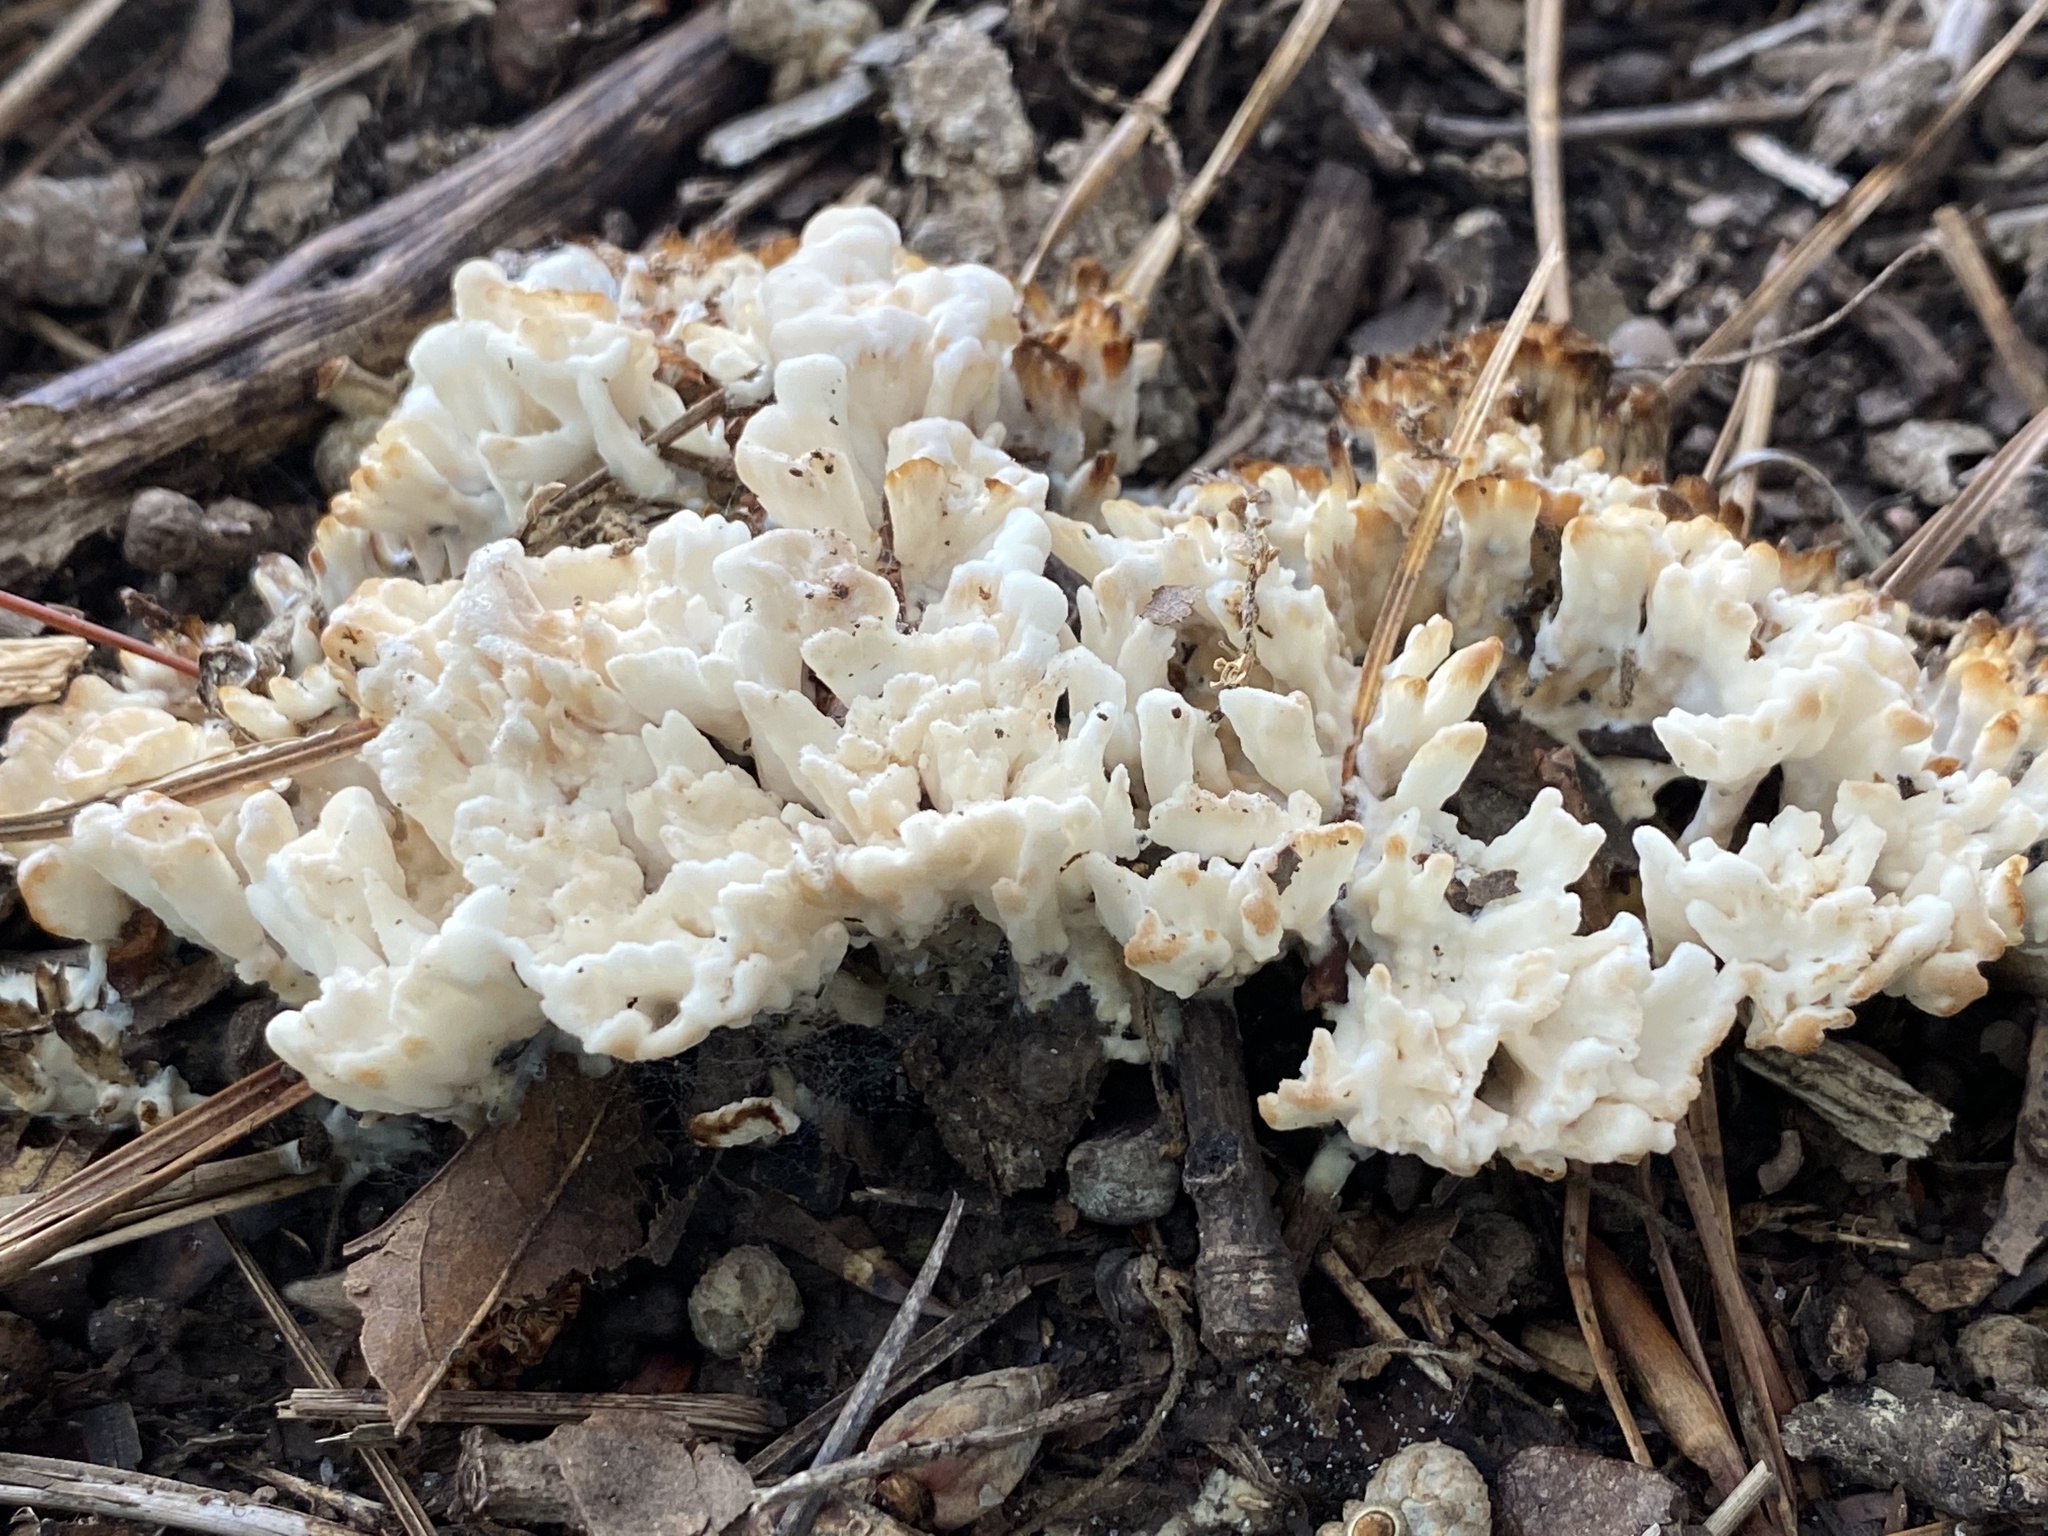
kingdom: Fungi
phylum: Basidiomycota
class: Agaricomycetes
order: Sebacinales
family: Sebacinaceae
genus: Sebacina
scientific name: Sebacina schweinitzii
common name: Jellied false coral fungus
